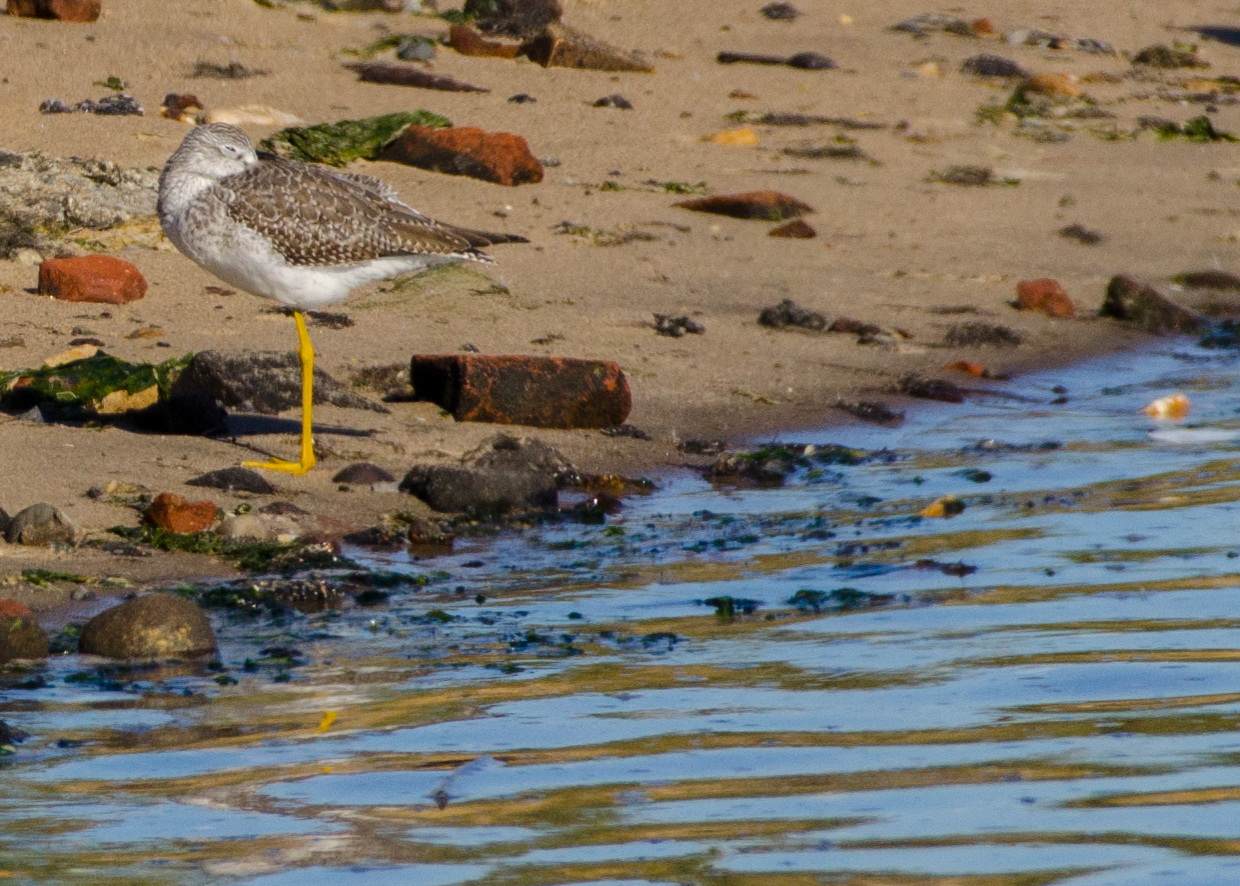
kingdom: Animalia
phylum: Chordata
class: Aves
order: Charadriiformes
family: Scolopacidae
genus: Tringa
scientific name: Tringa melanoleuca
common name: Greater yellowlegs
